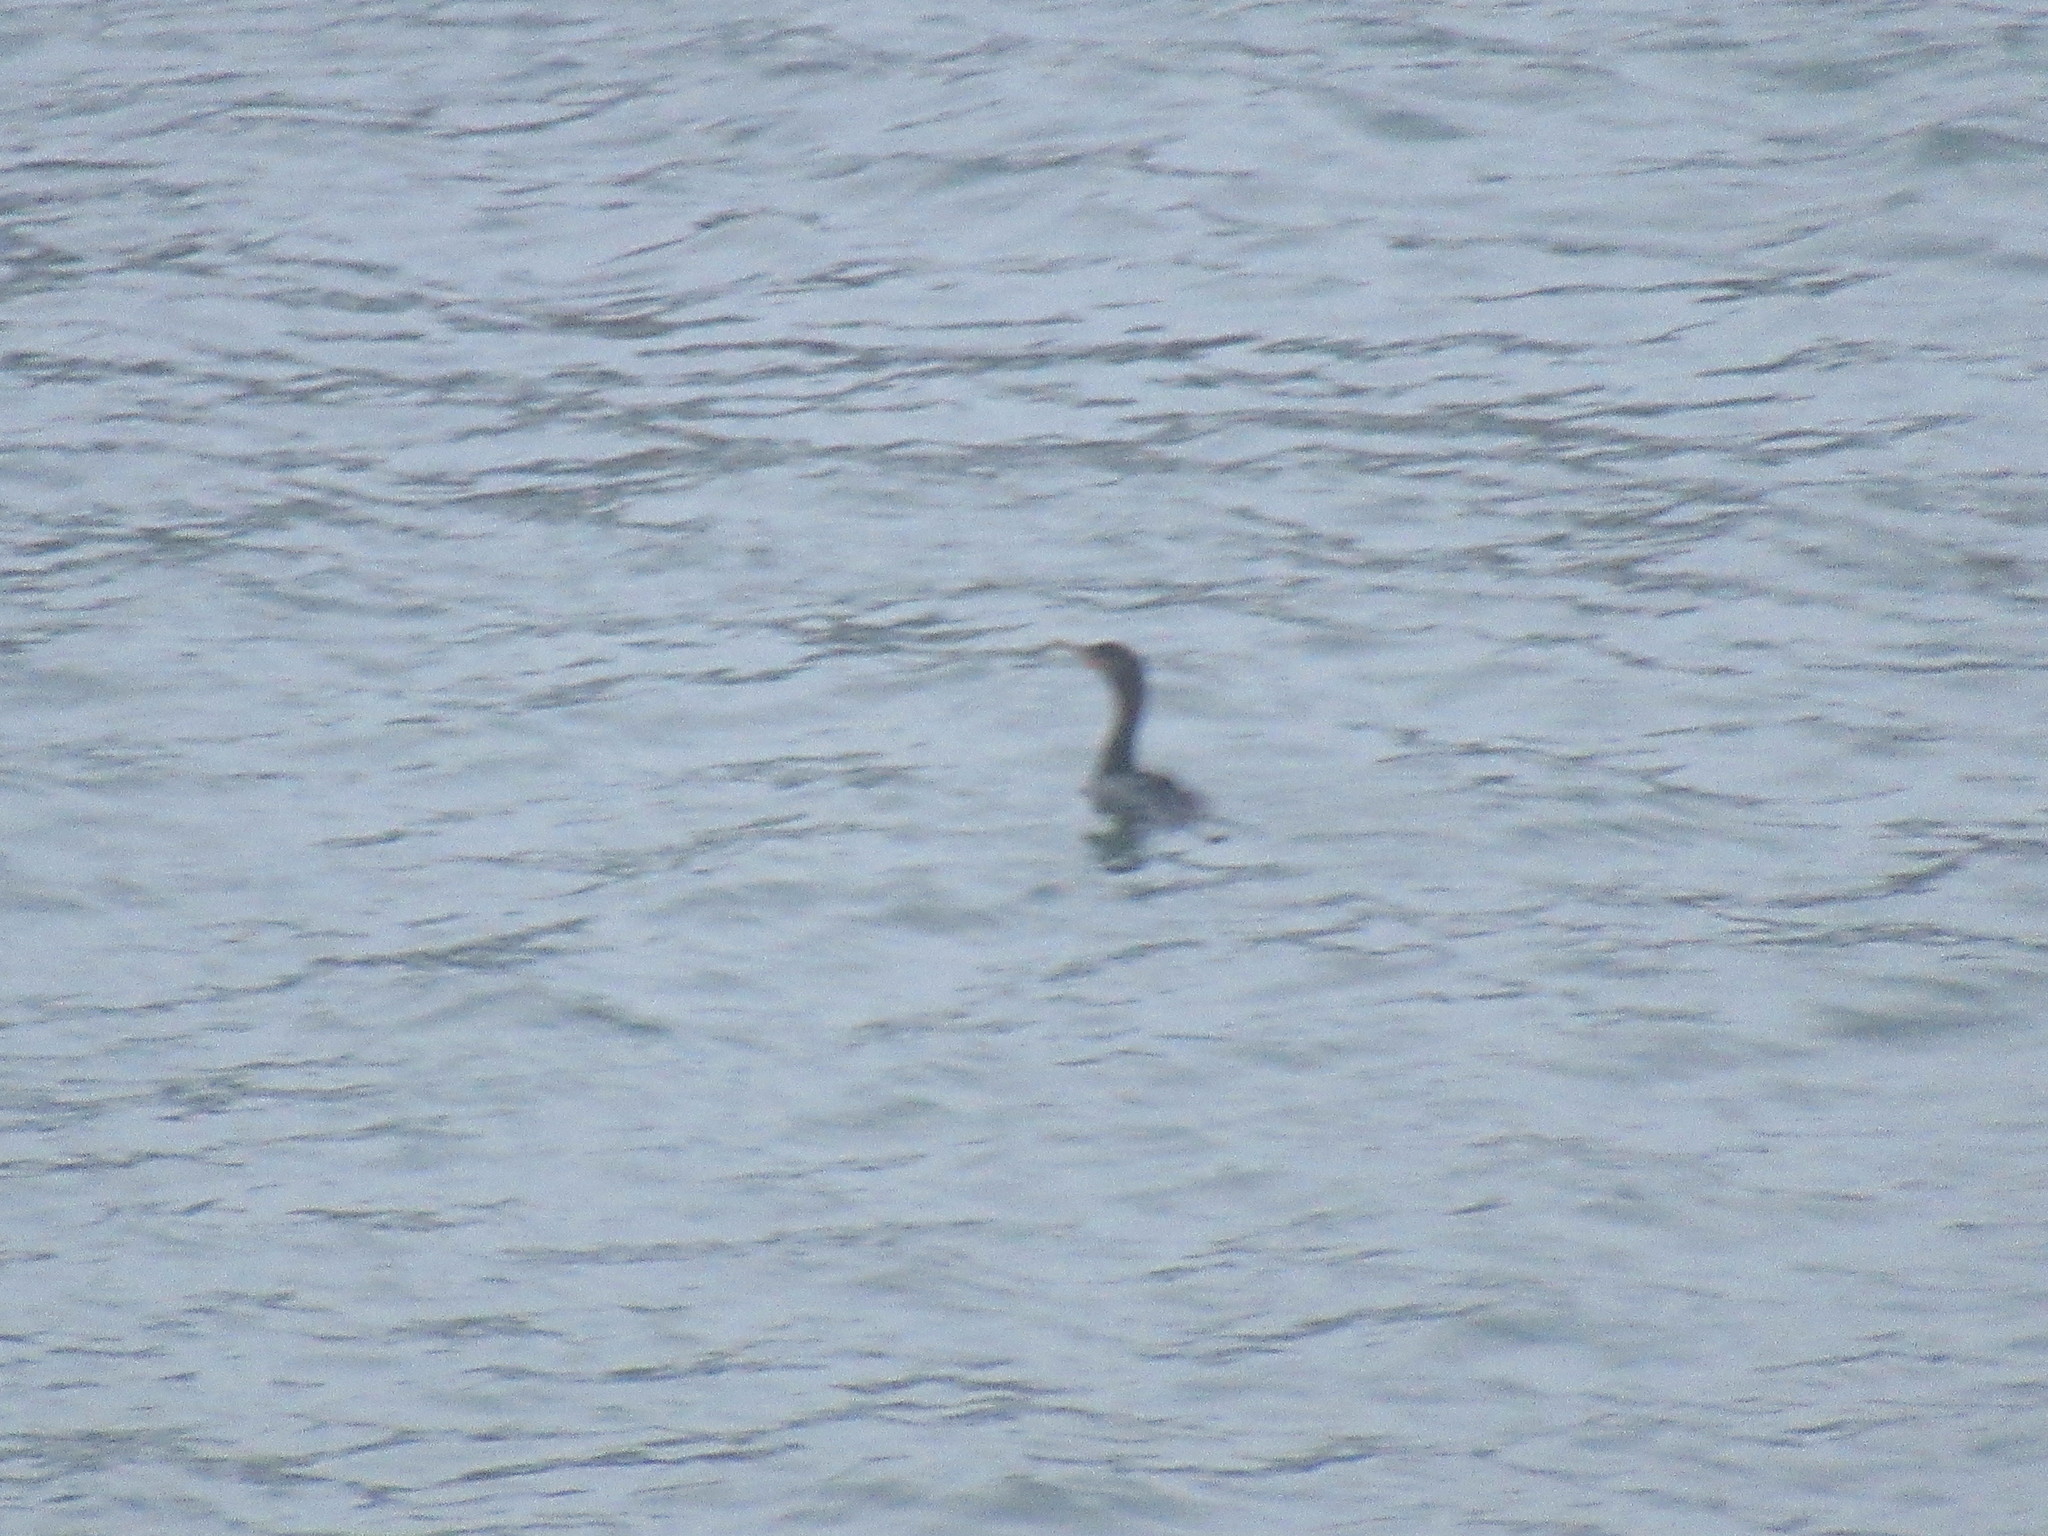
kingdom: Animalia
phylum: Chordata
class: Aves
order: Suliformes
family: Phalacrocoracidae
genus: Phalacrocorax
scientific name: Phalacrocorax auritus
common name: Double-crested cormorant
